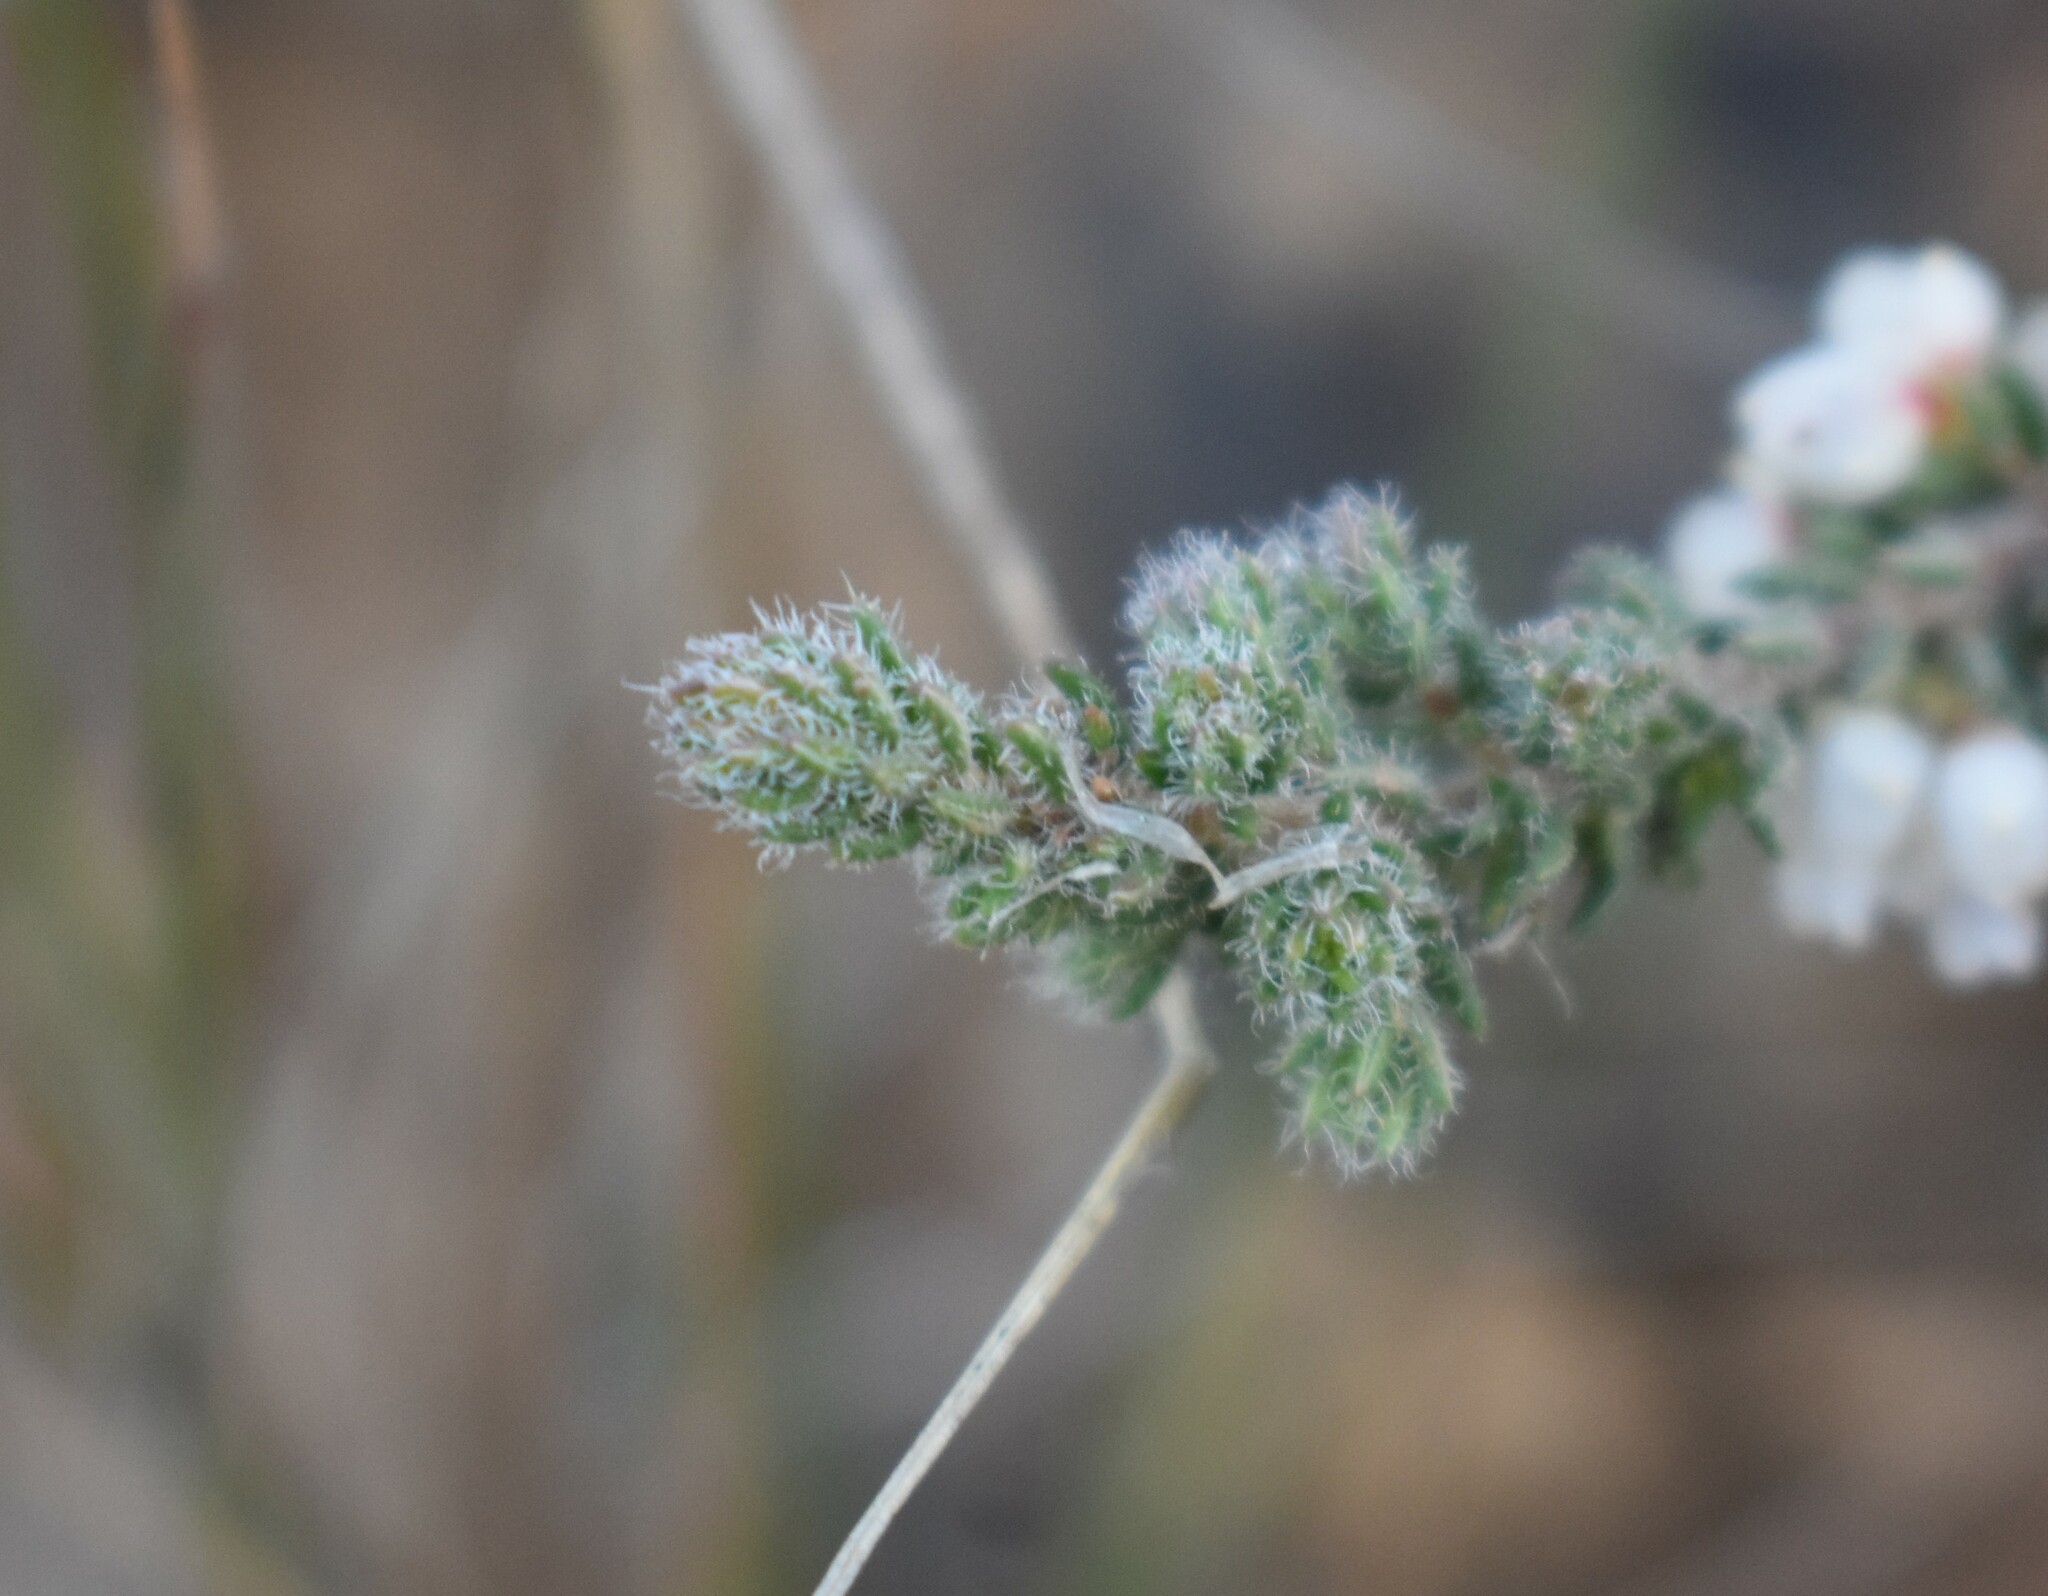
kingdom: Plantae
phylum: Tracheophyta
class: Magnoliopsida
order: Ericales
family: Ericaceae
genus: Erica
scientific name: Erica totta
